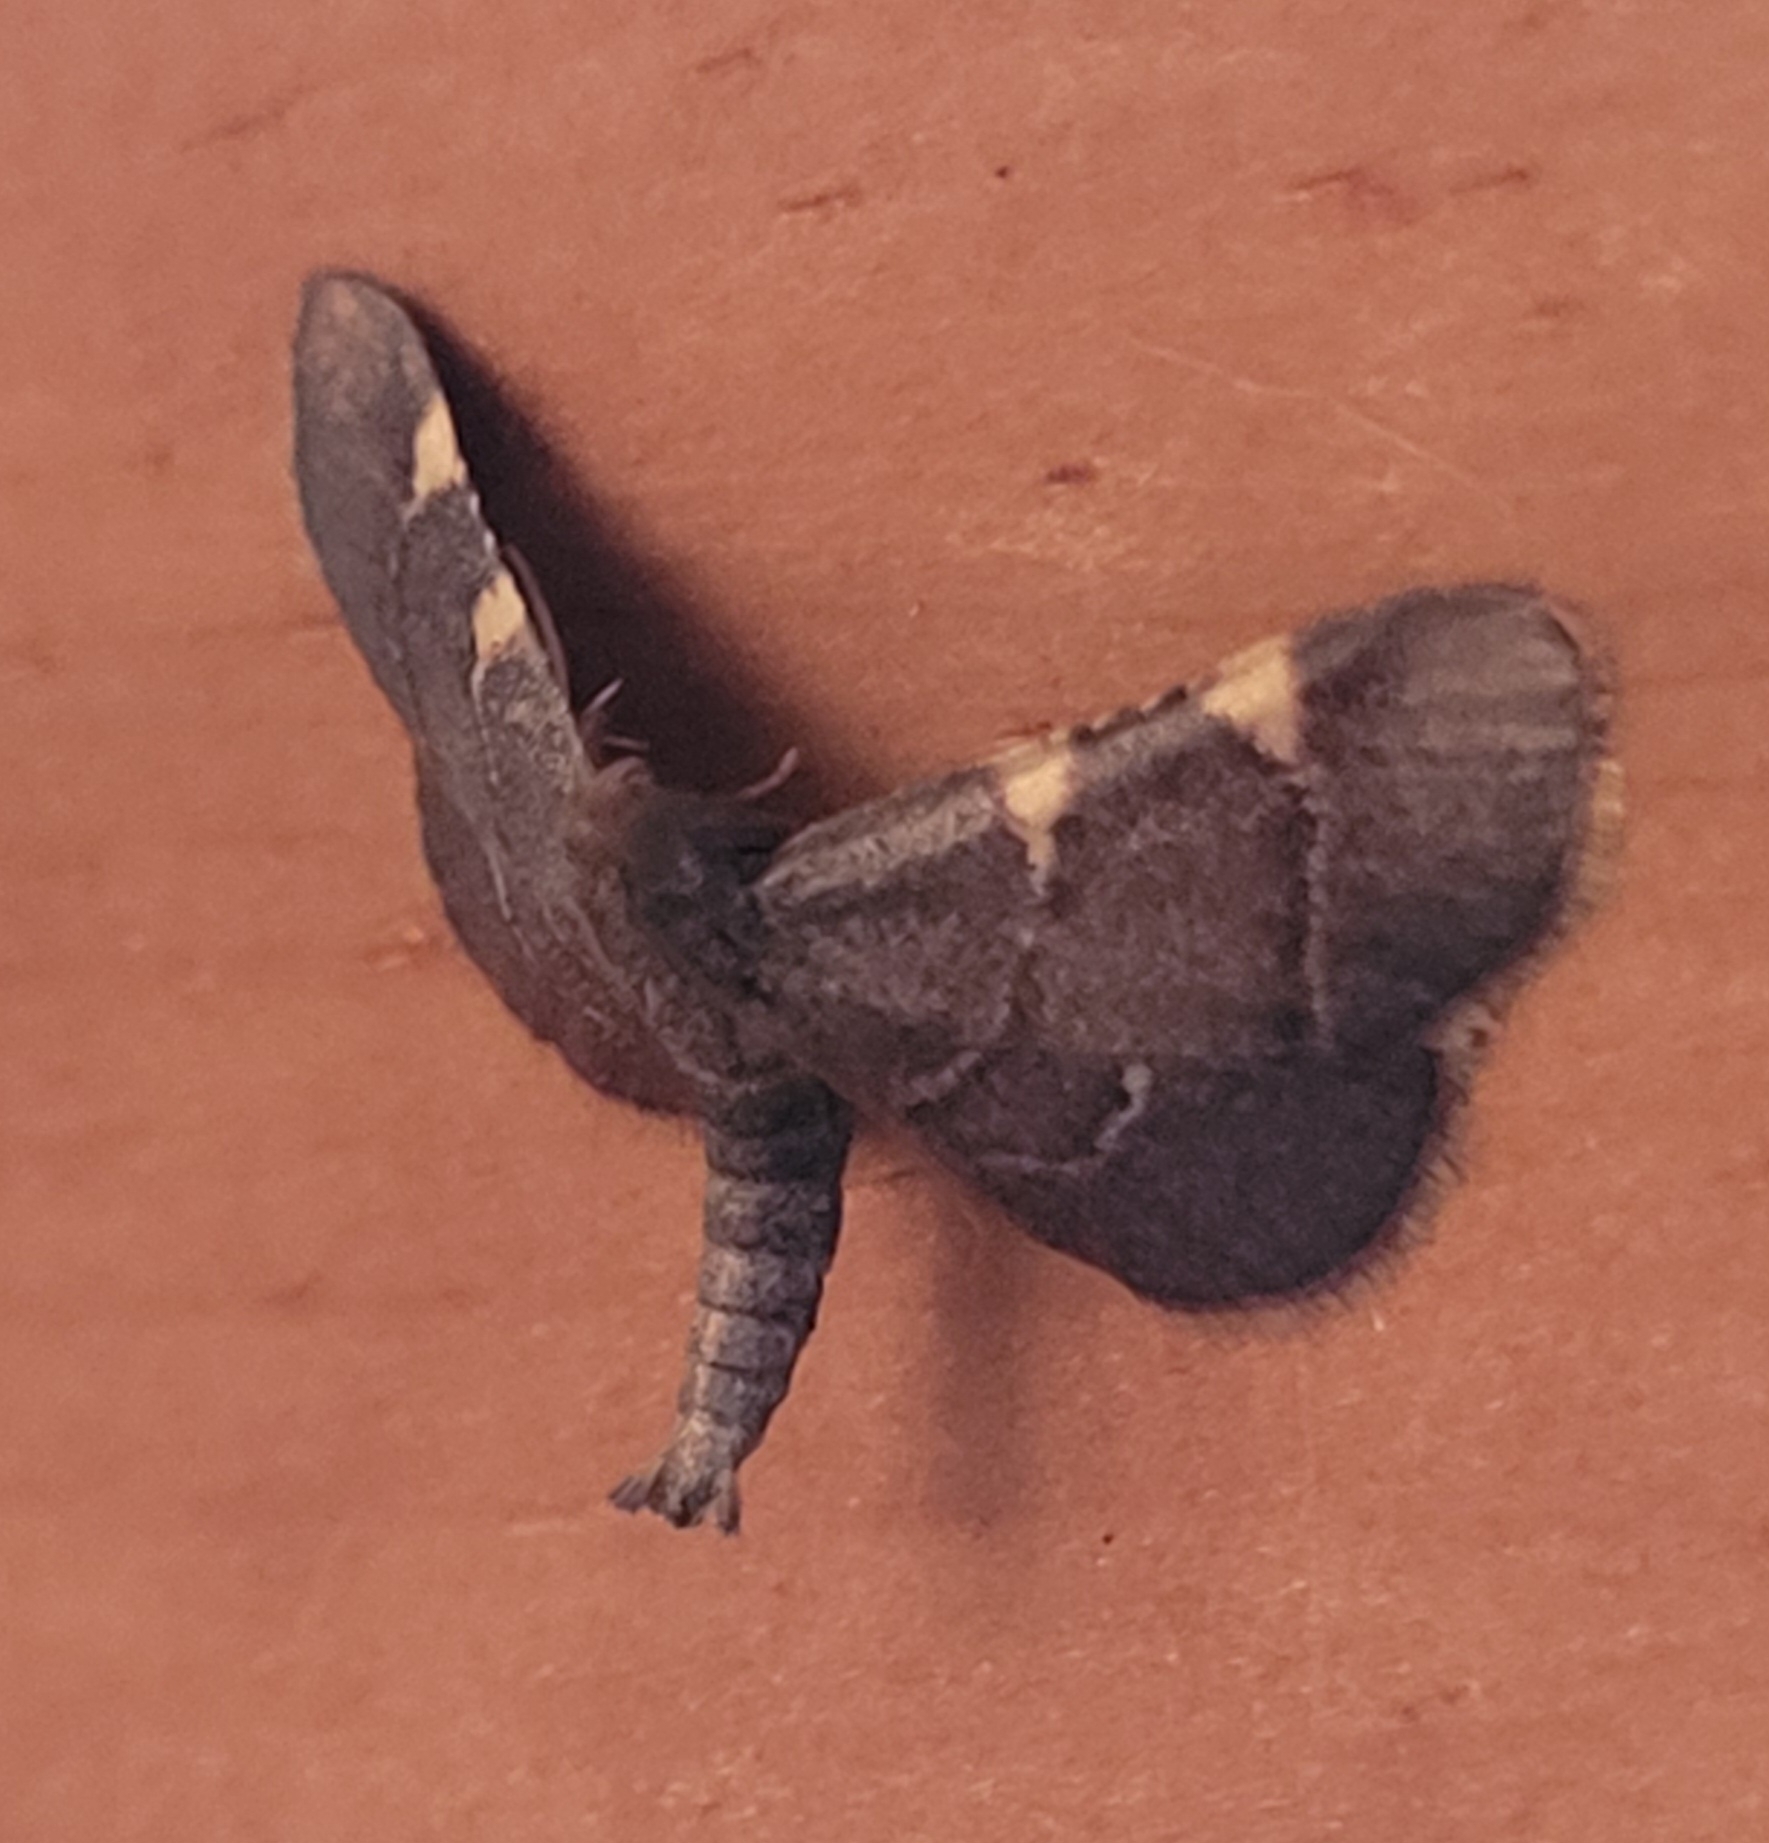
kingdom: Animalia
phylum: Arthropoda
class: Insecta
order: Lepidoptera
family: Pyralidae
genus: Hypsopygia
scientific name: Hypsopygia olinalis
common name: Yellow-fringed dolichomia moth
